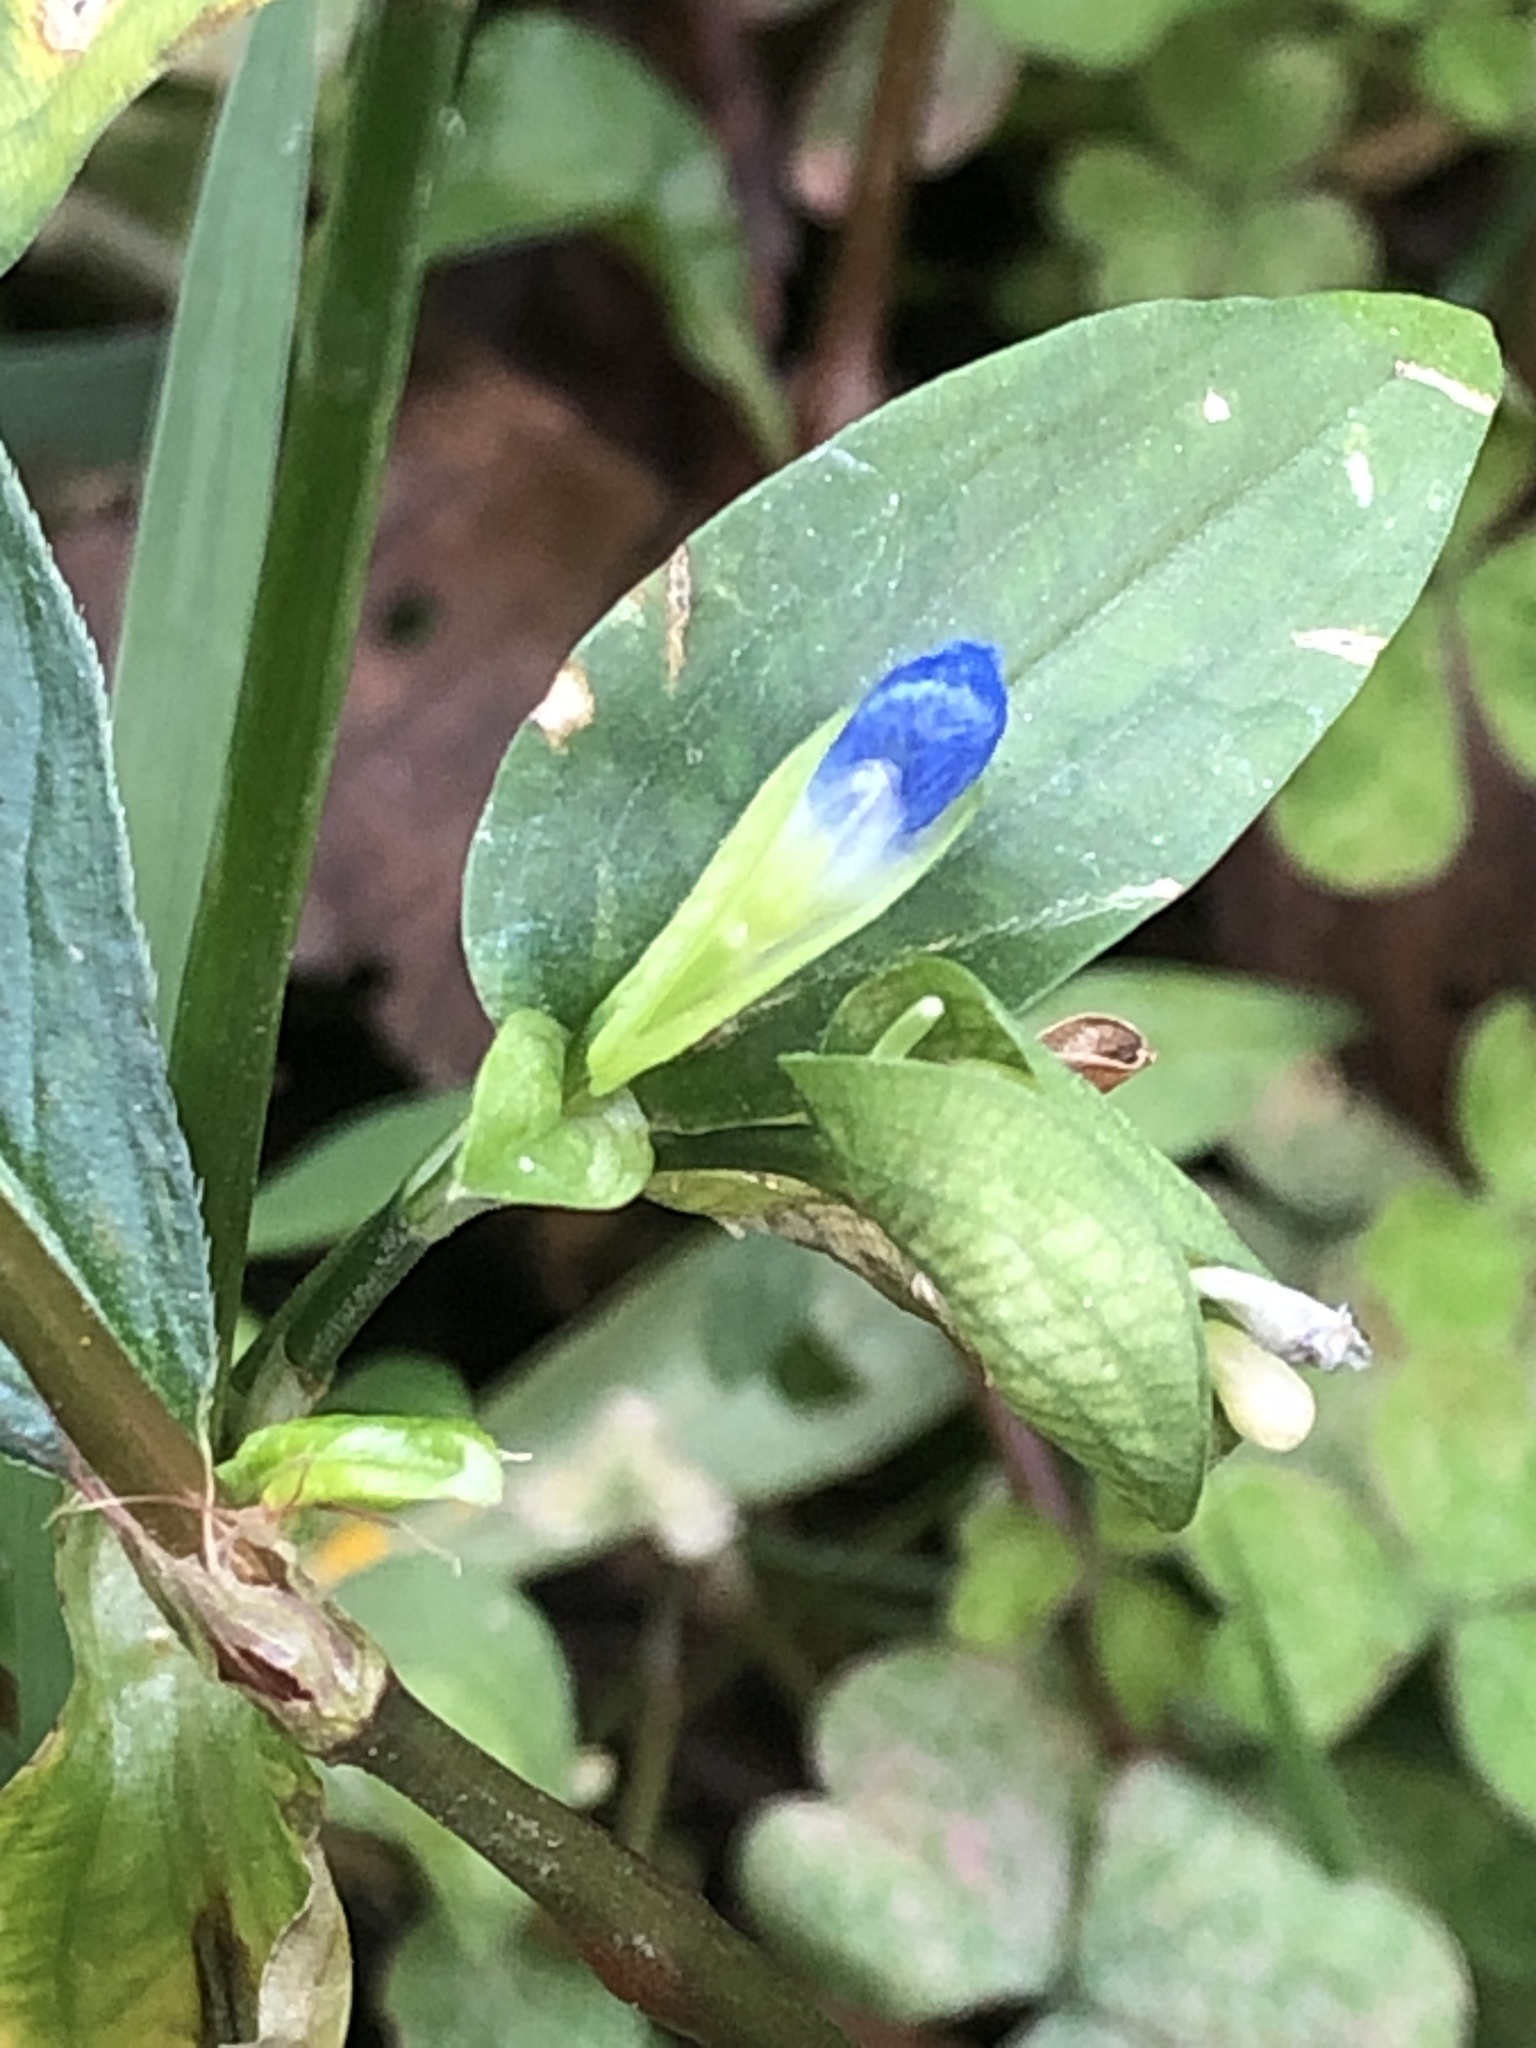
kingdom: Plantae
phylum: Tracheophyta
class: Liliopsida
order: Commelinales
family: Commelinaceae
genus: Commelina
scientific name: Commelina communis
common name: Asiatic dayflower
